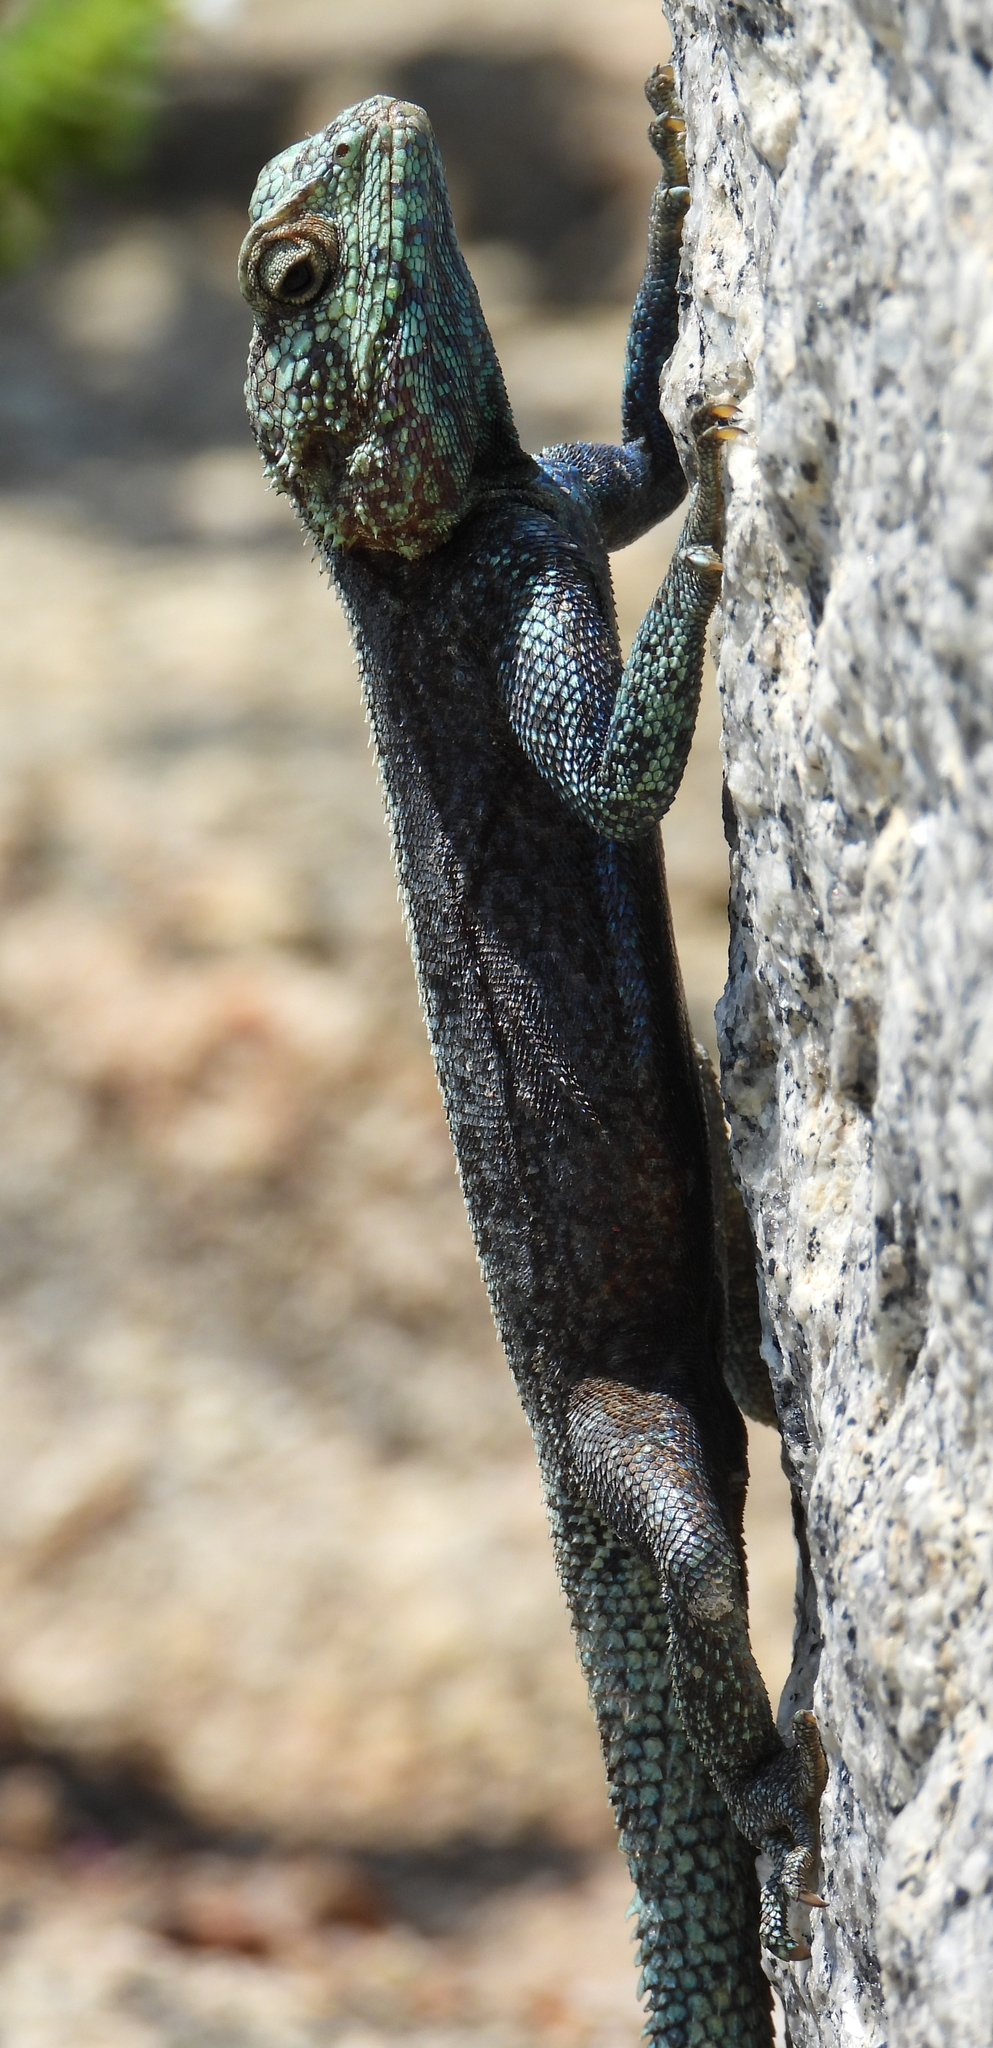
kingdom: Animalia
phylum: Chordata
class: Squamata
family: Agamidae
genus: Agama
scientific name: Agama atra
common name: Southern african rock agama
